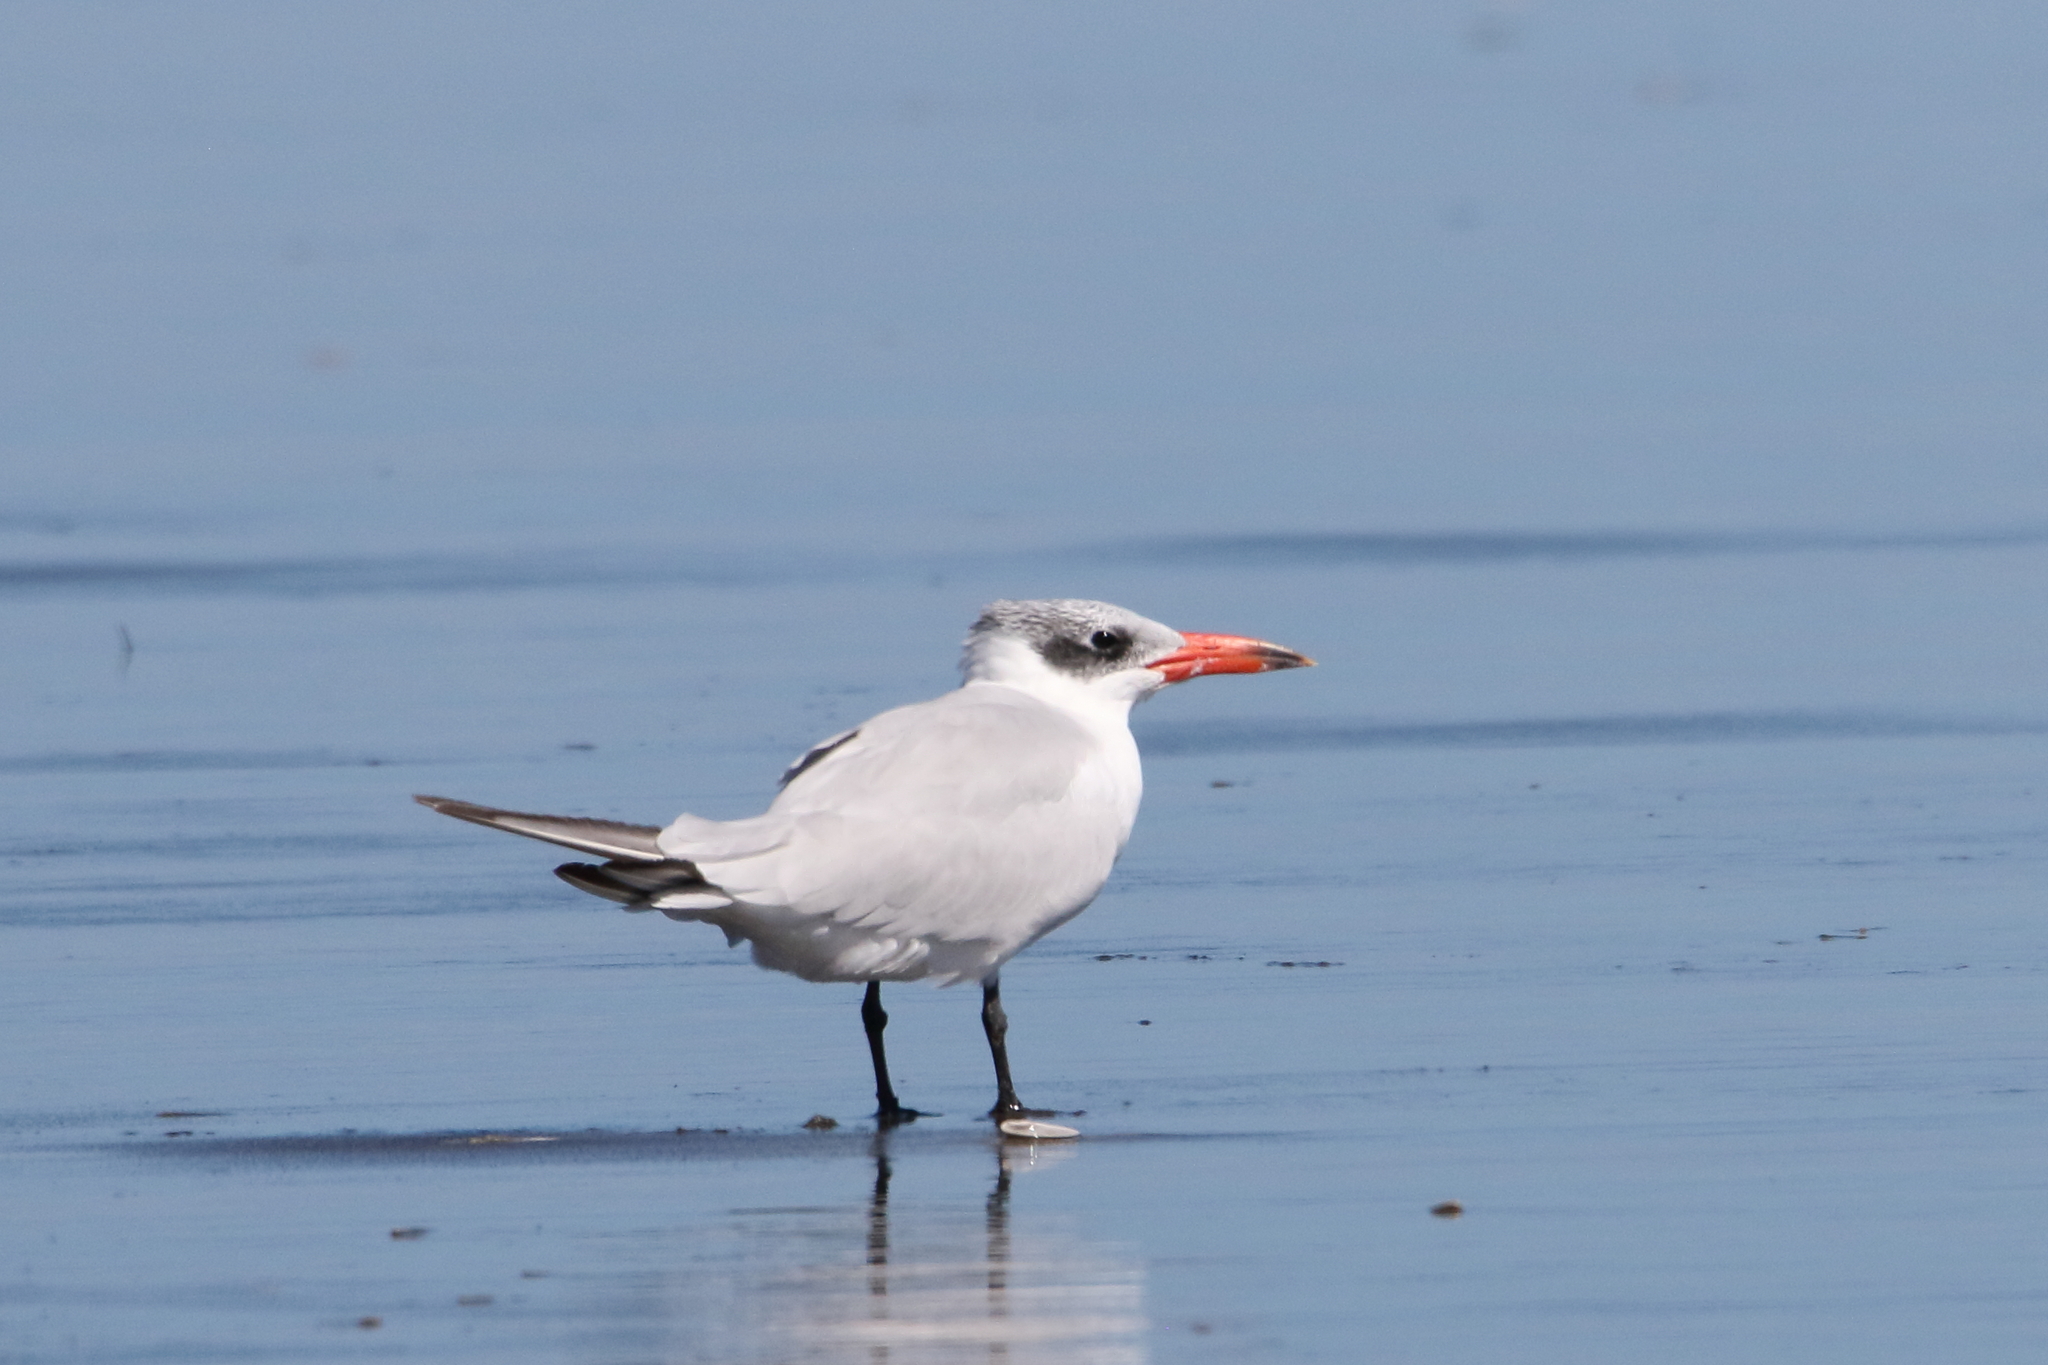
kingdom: Animalia
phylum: Chordata
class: Aves
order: Charadriiformes
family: Laridae
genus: Hydroprogne
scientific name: Hydroprogne caspia
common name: Caspian tern
